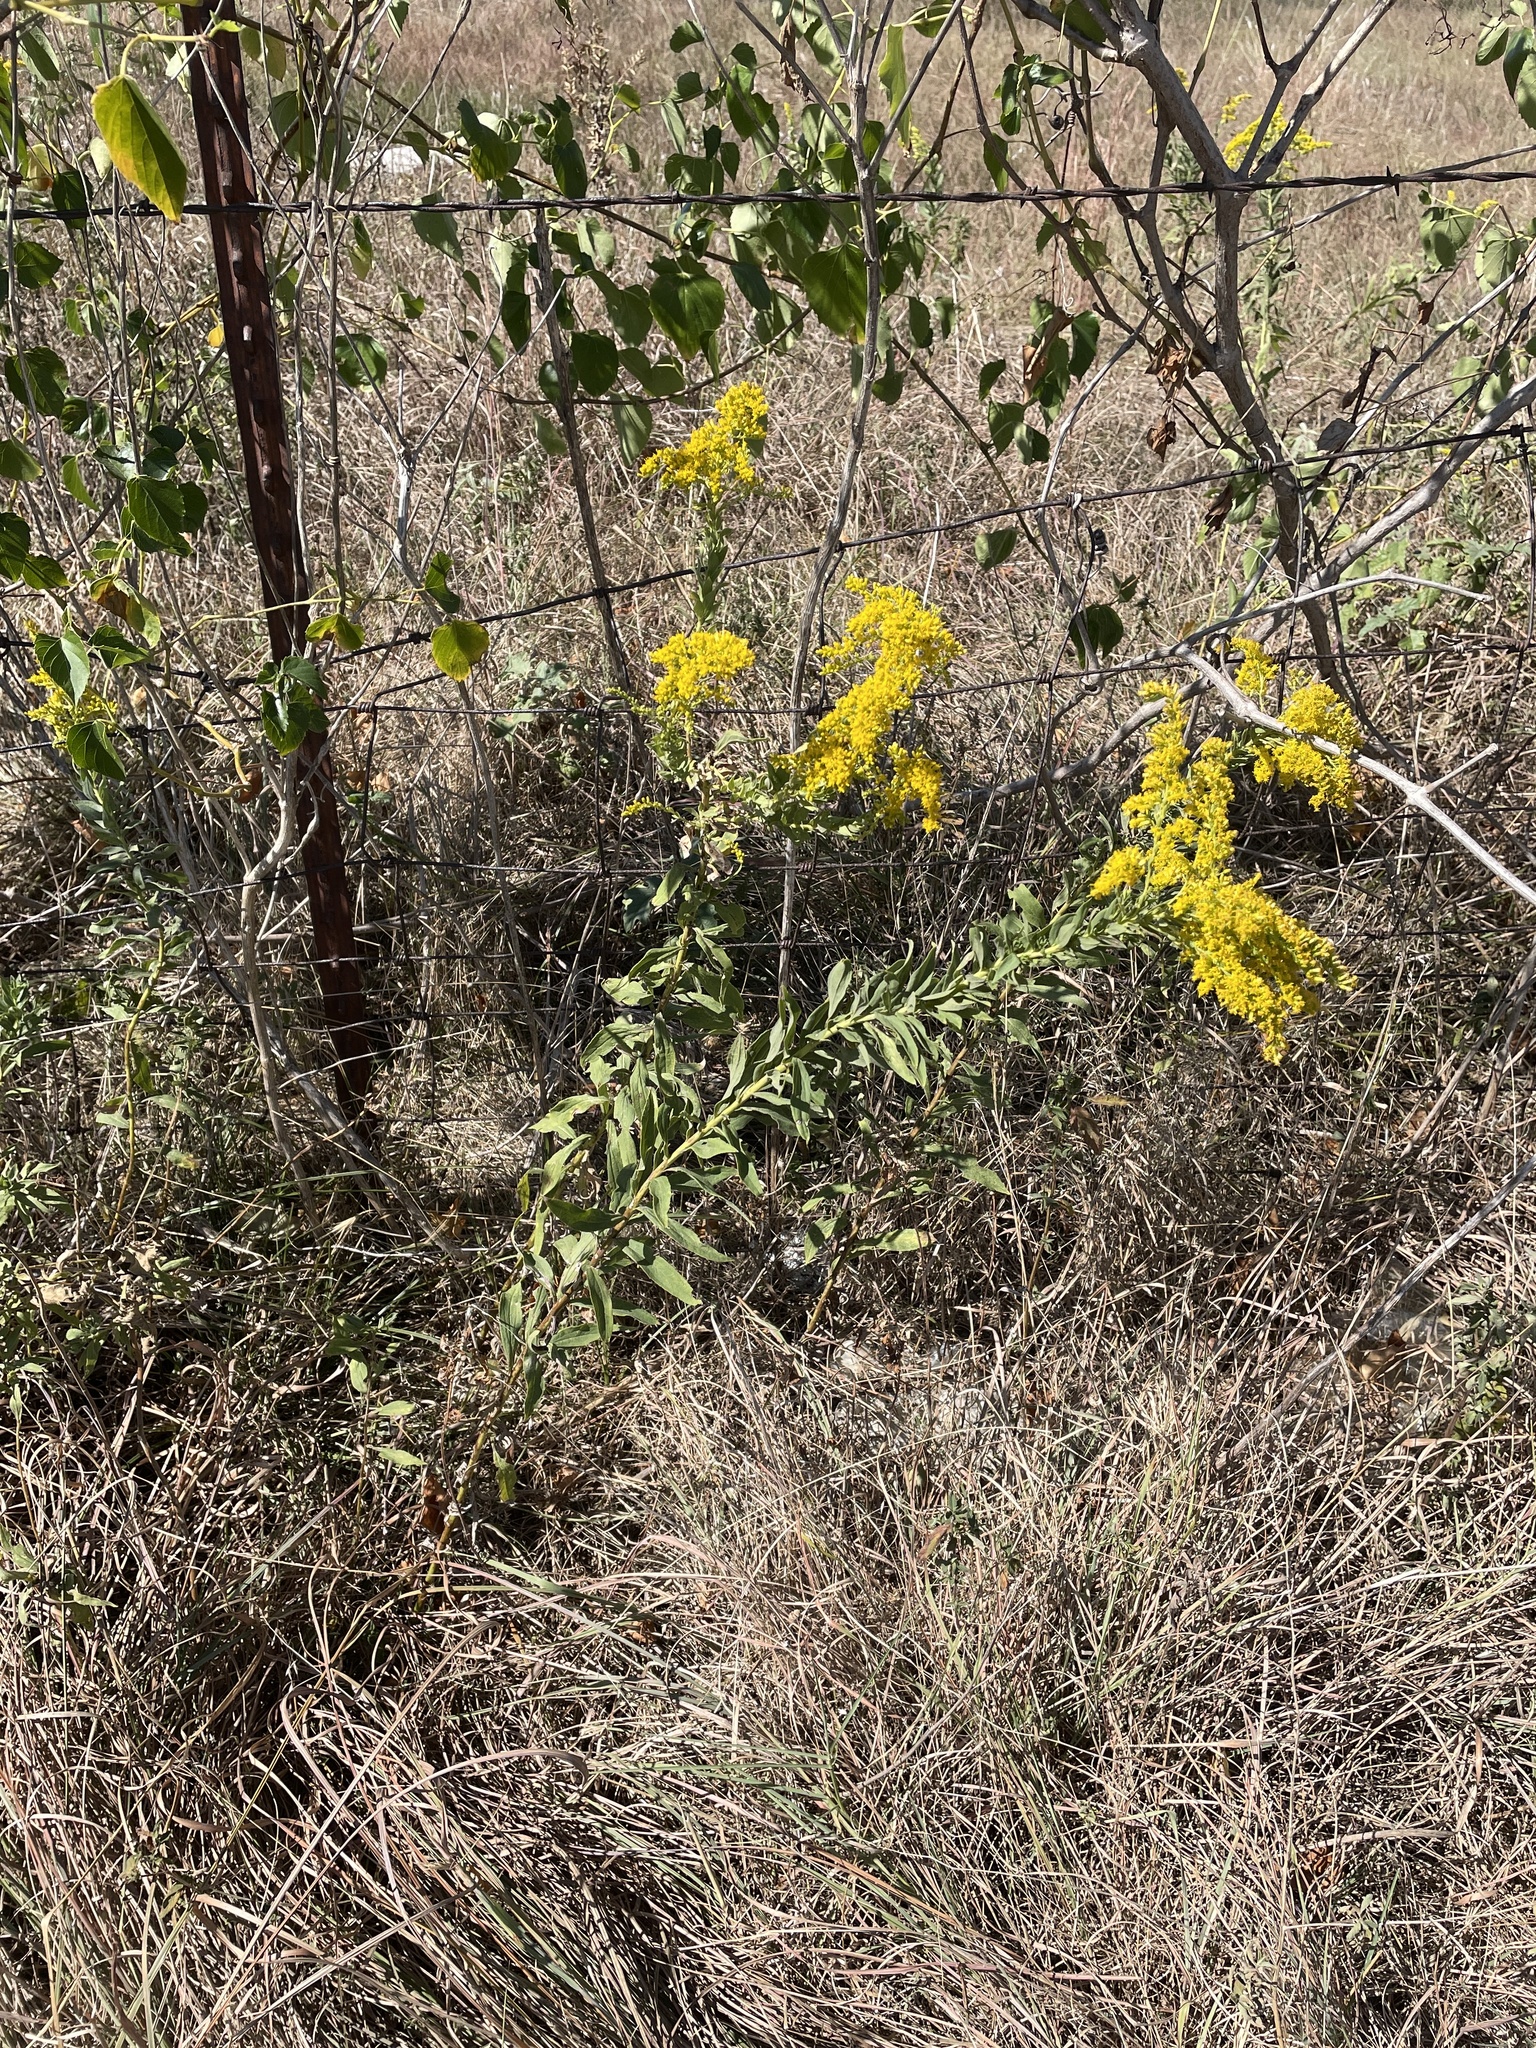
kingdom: Plantae
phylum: Tracheophyta
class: Magnoliopsida
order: Asterales
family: Asteraceae
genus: Solidago
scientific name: Solidago altissima
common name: Late goldenrod
